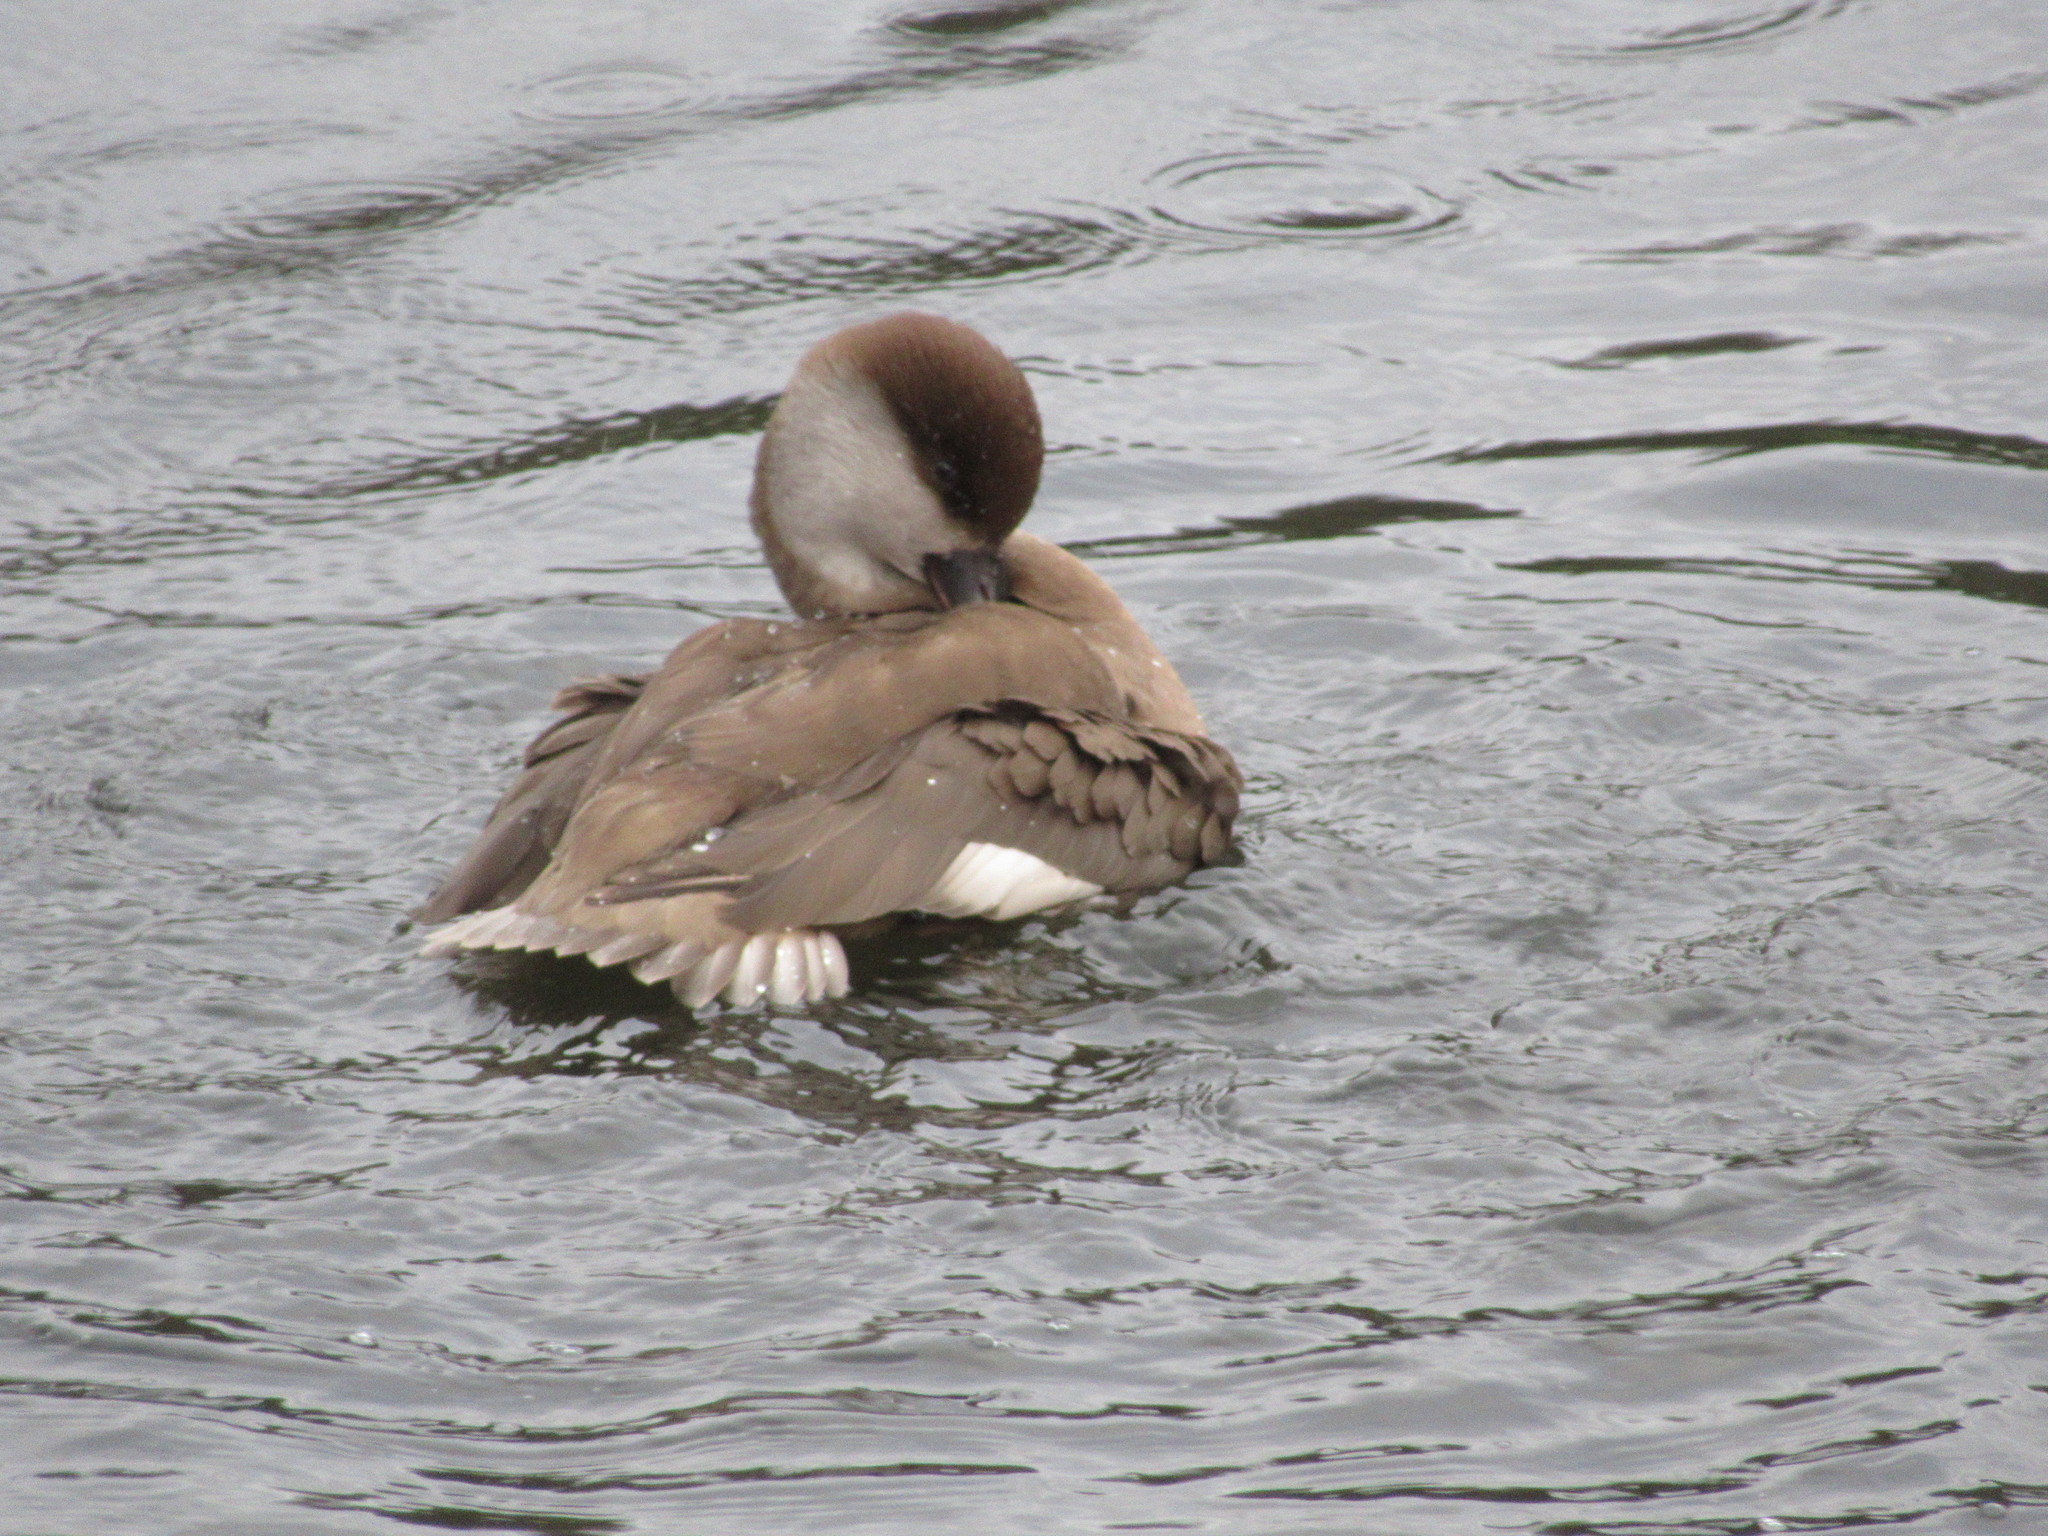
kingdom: Animalia
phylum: Chordata
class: Aves
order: Anseriformes
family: Anatidae
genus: Netta
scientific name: Netta rufina
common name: Red-crested pochard
